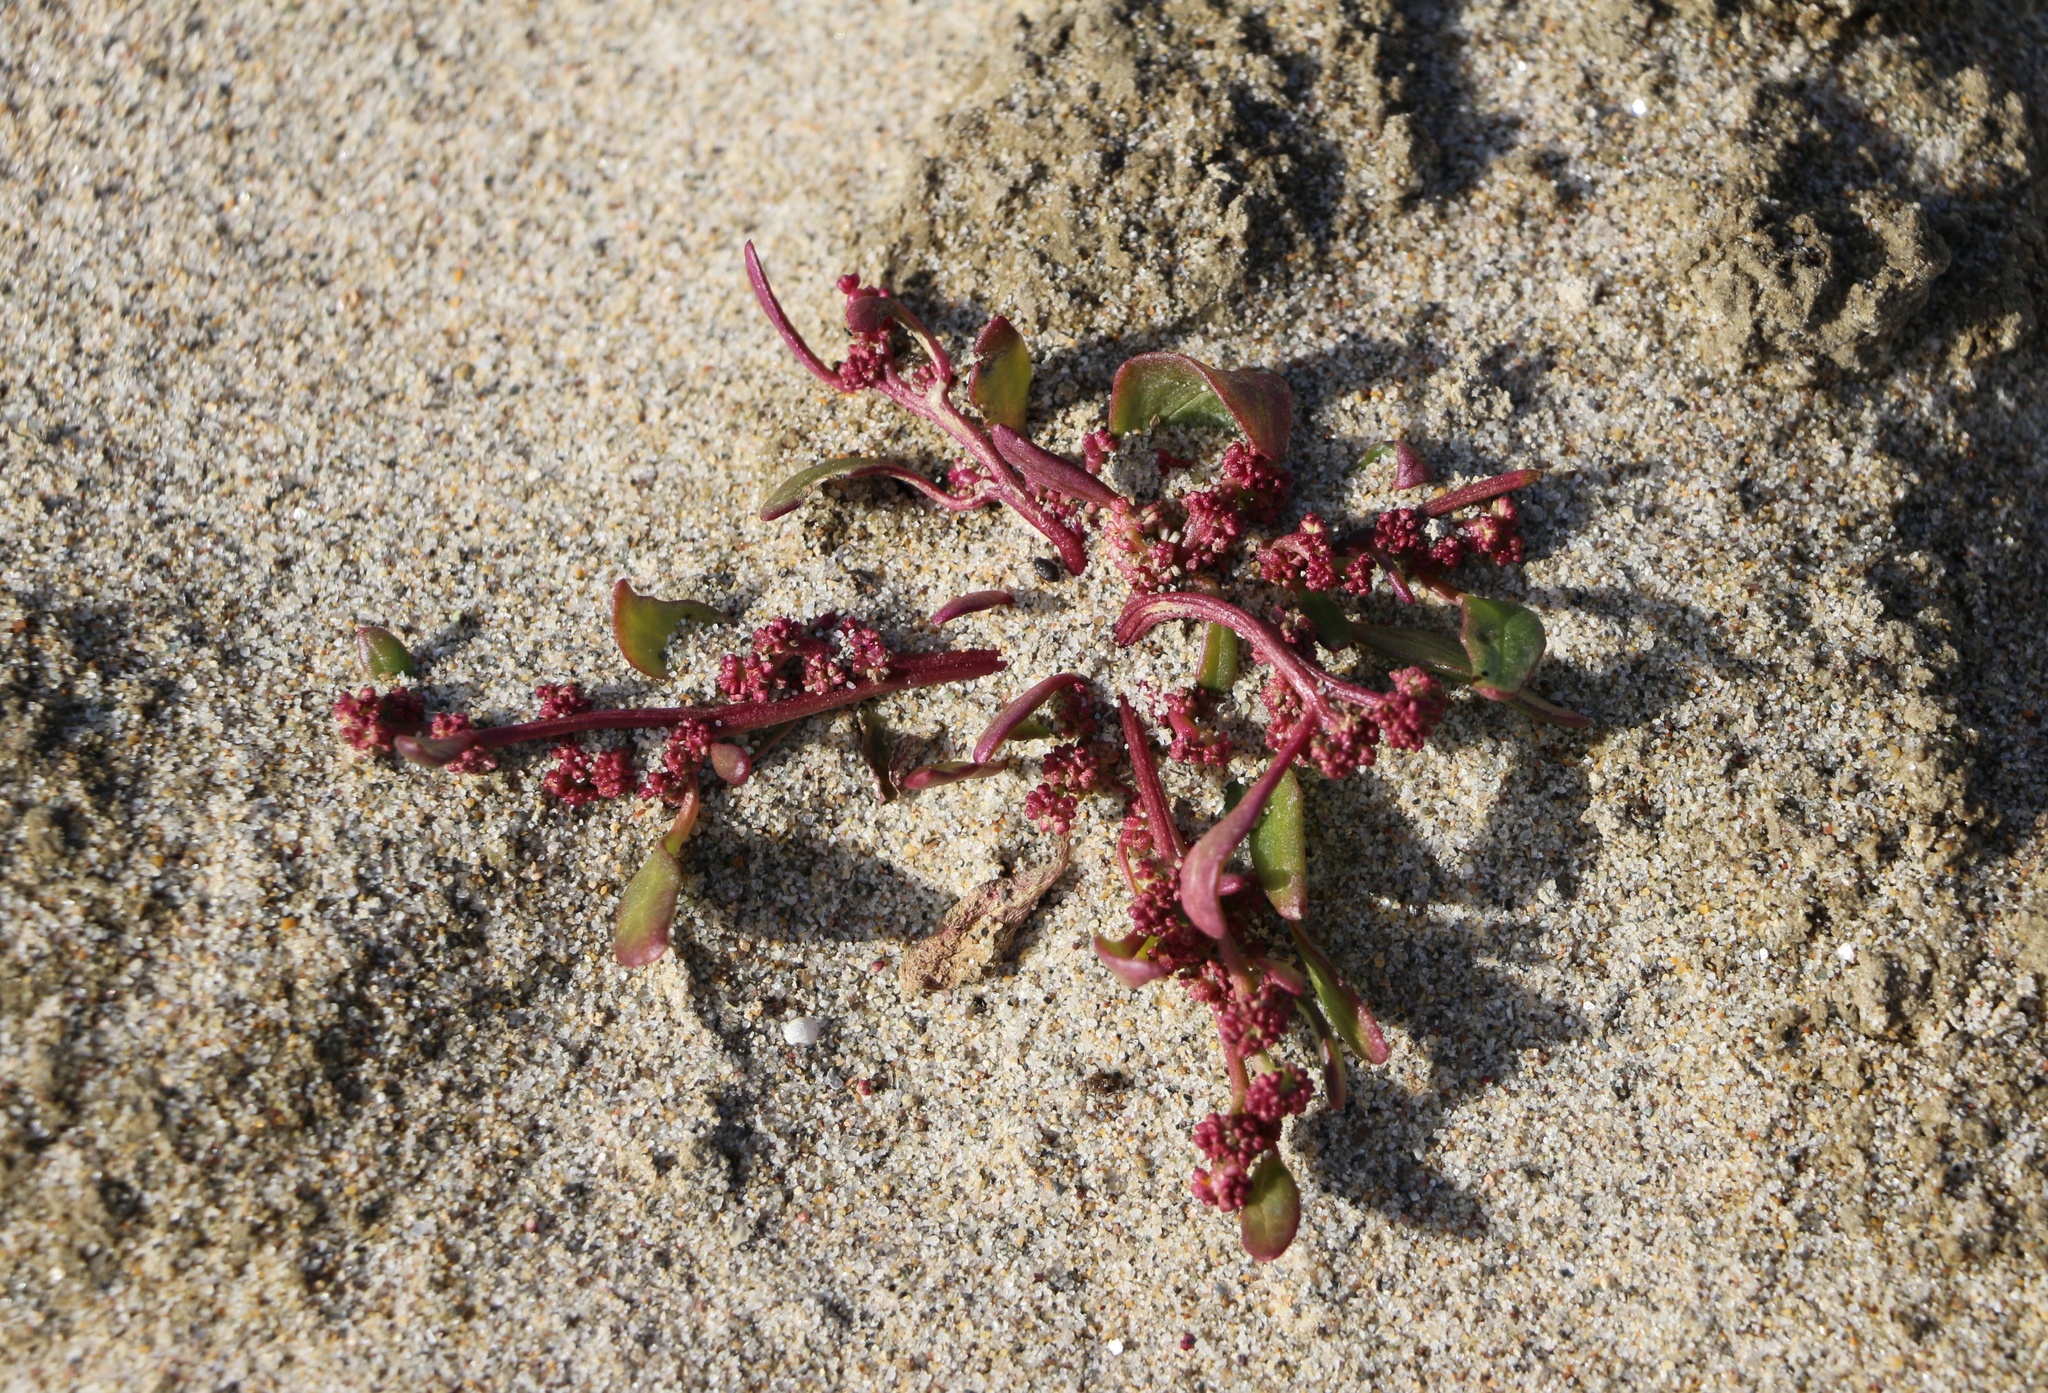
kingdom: Plantae
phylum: Tracheophyta
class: Magnoliopsida
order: Caryophyllales
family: Amaranthaceae
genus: Oxybasis
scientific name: Oxybasis rubra
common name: Red goosefoot
